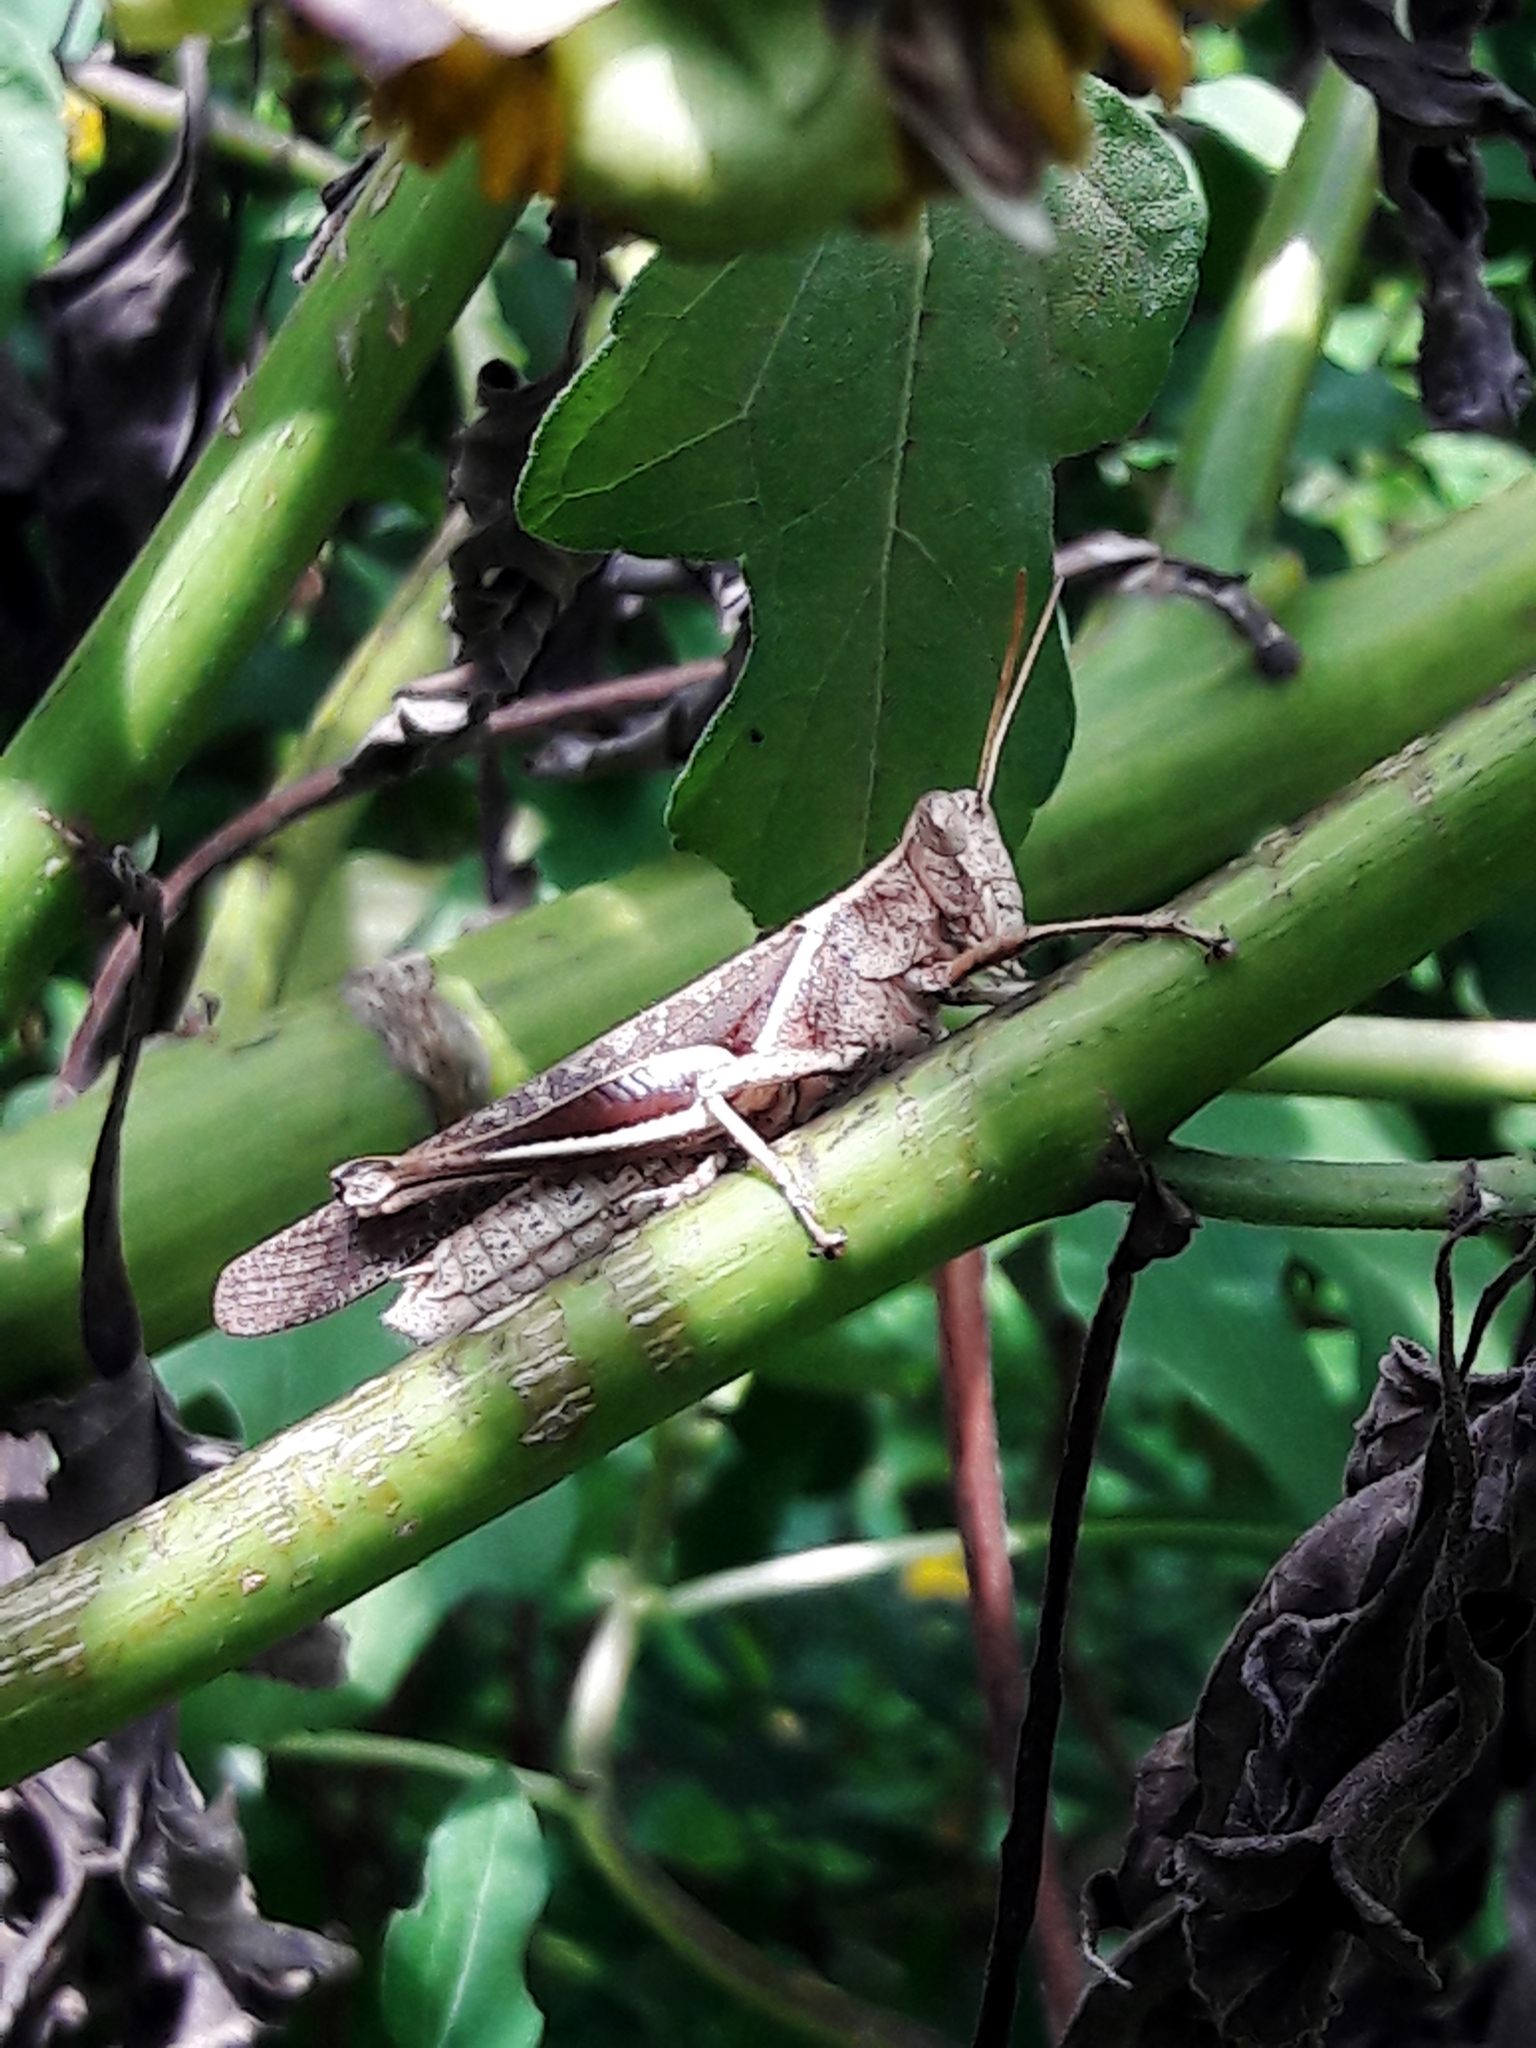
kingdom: Animalia
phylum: Arthropoda
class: Insecta
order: Orthoptera
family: Acrididae
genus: Abracris
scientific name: Abracris flavolineata
